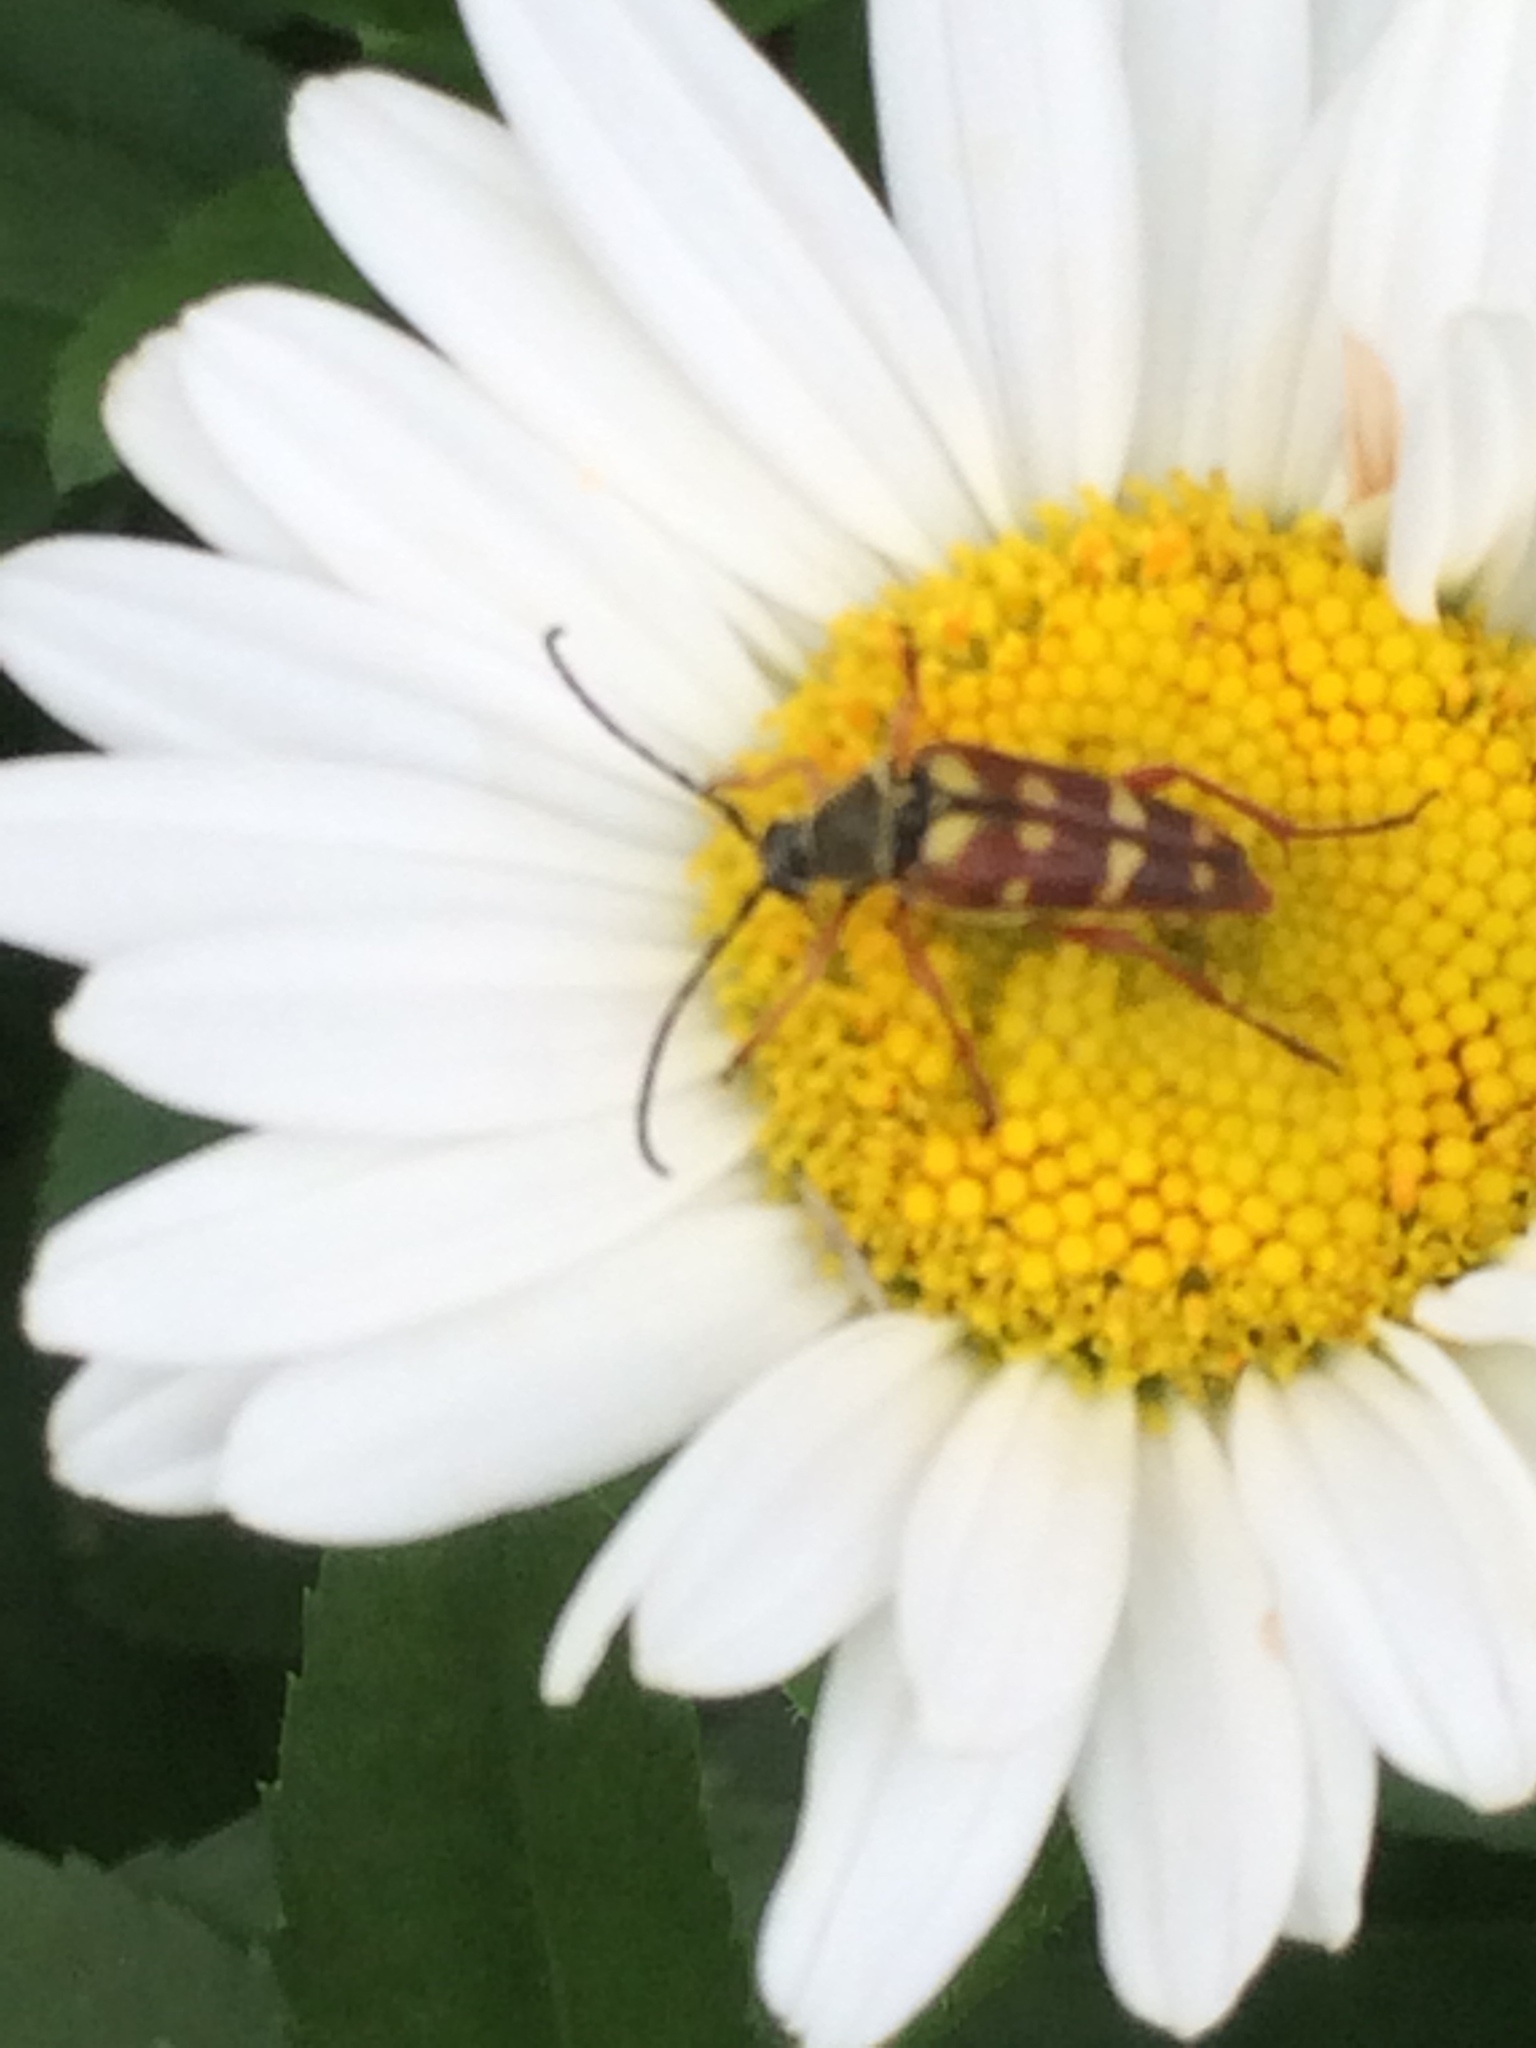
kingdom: Animalia
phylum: Arthropoda
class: Insecta
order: Coleoptera
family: Cerambycidae
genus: Typocerus
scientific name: Typocerus velutinus
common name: Banded longhorn beetle
